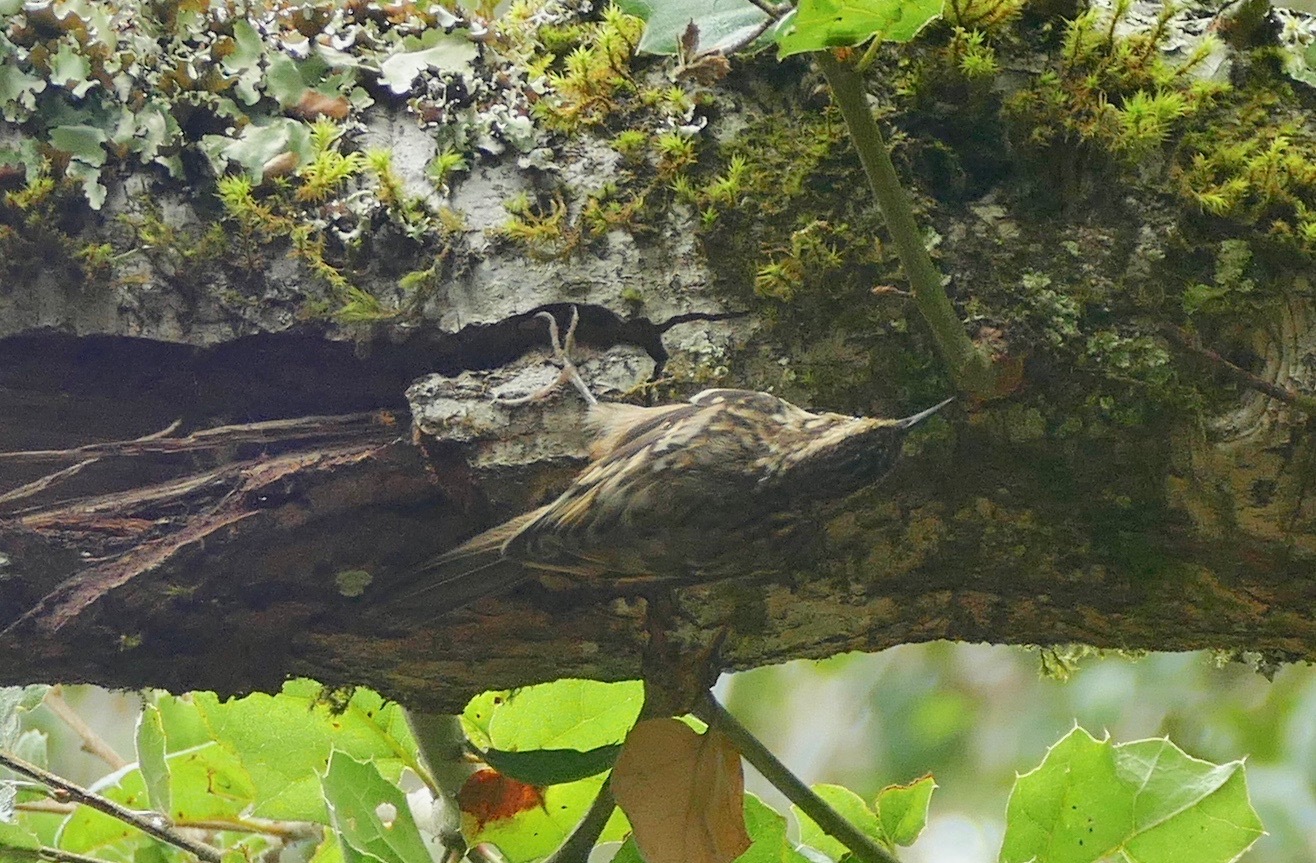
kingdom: Animalia
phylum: Chordata
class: Aves
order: Passeriformes
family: Certhiidae
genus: Certhia
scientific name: Certhia americana
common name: Brown creeper
